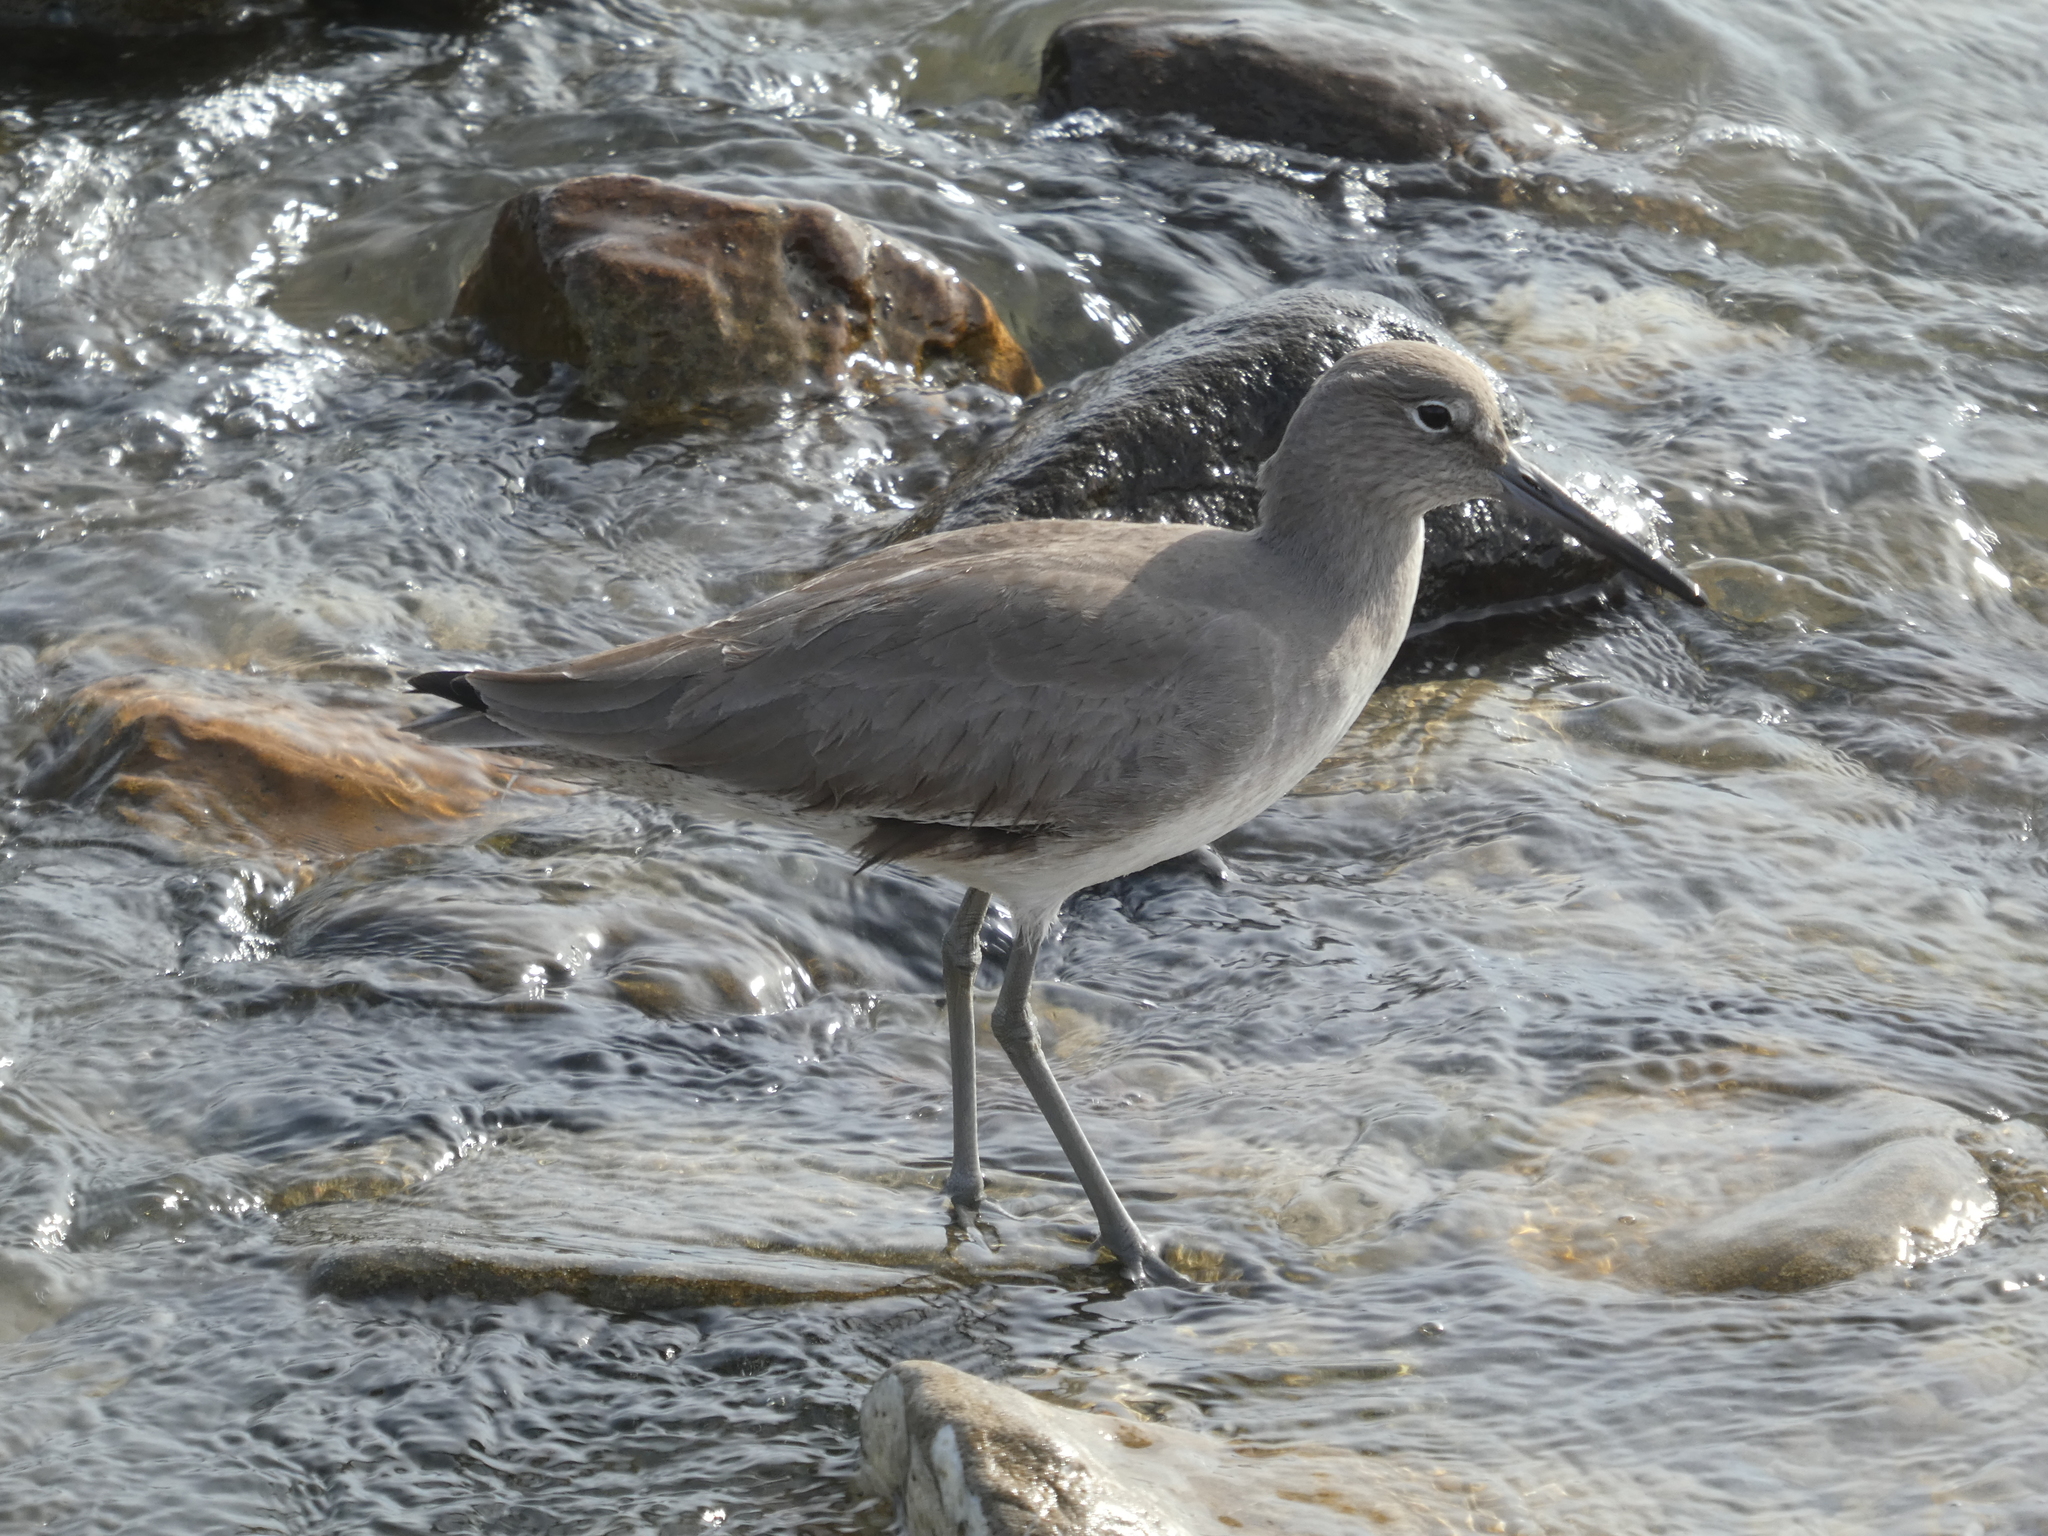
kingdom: Animalia
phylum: Chordata
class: Aves
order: Charadriiformes
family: Scolopacidae
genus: Tringa
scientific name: Tringa semipalmata
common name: Willet
